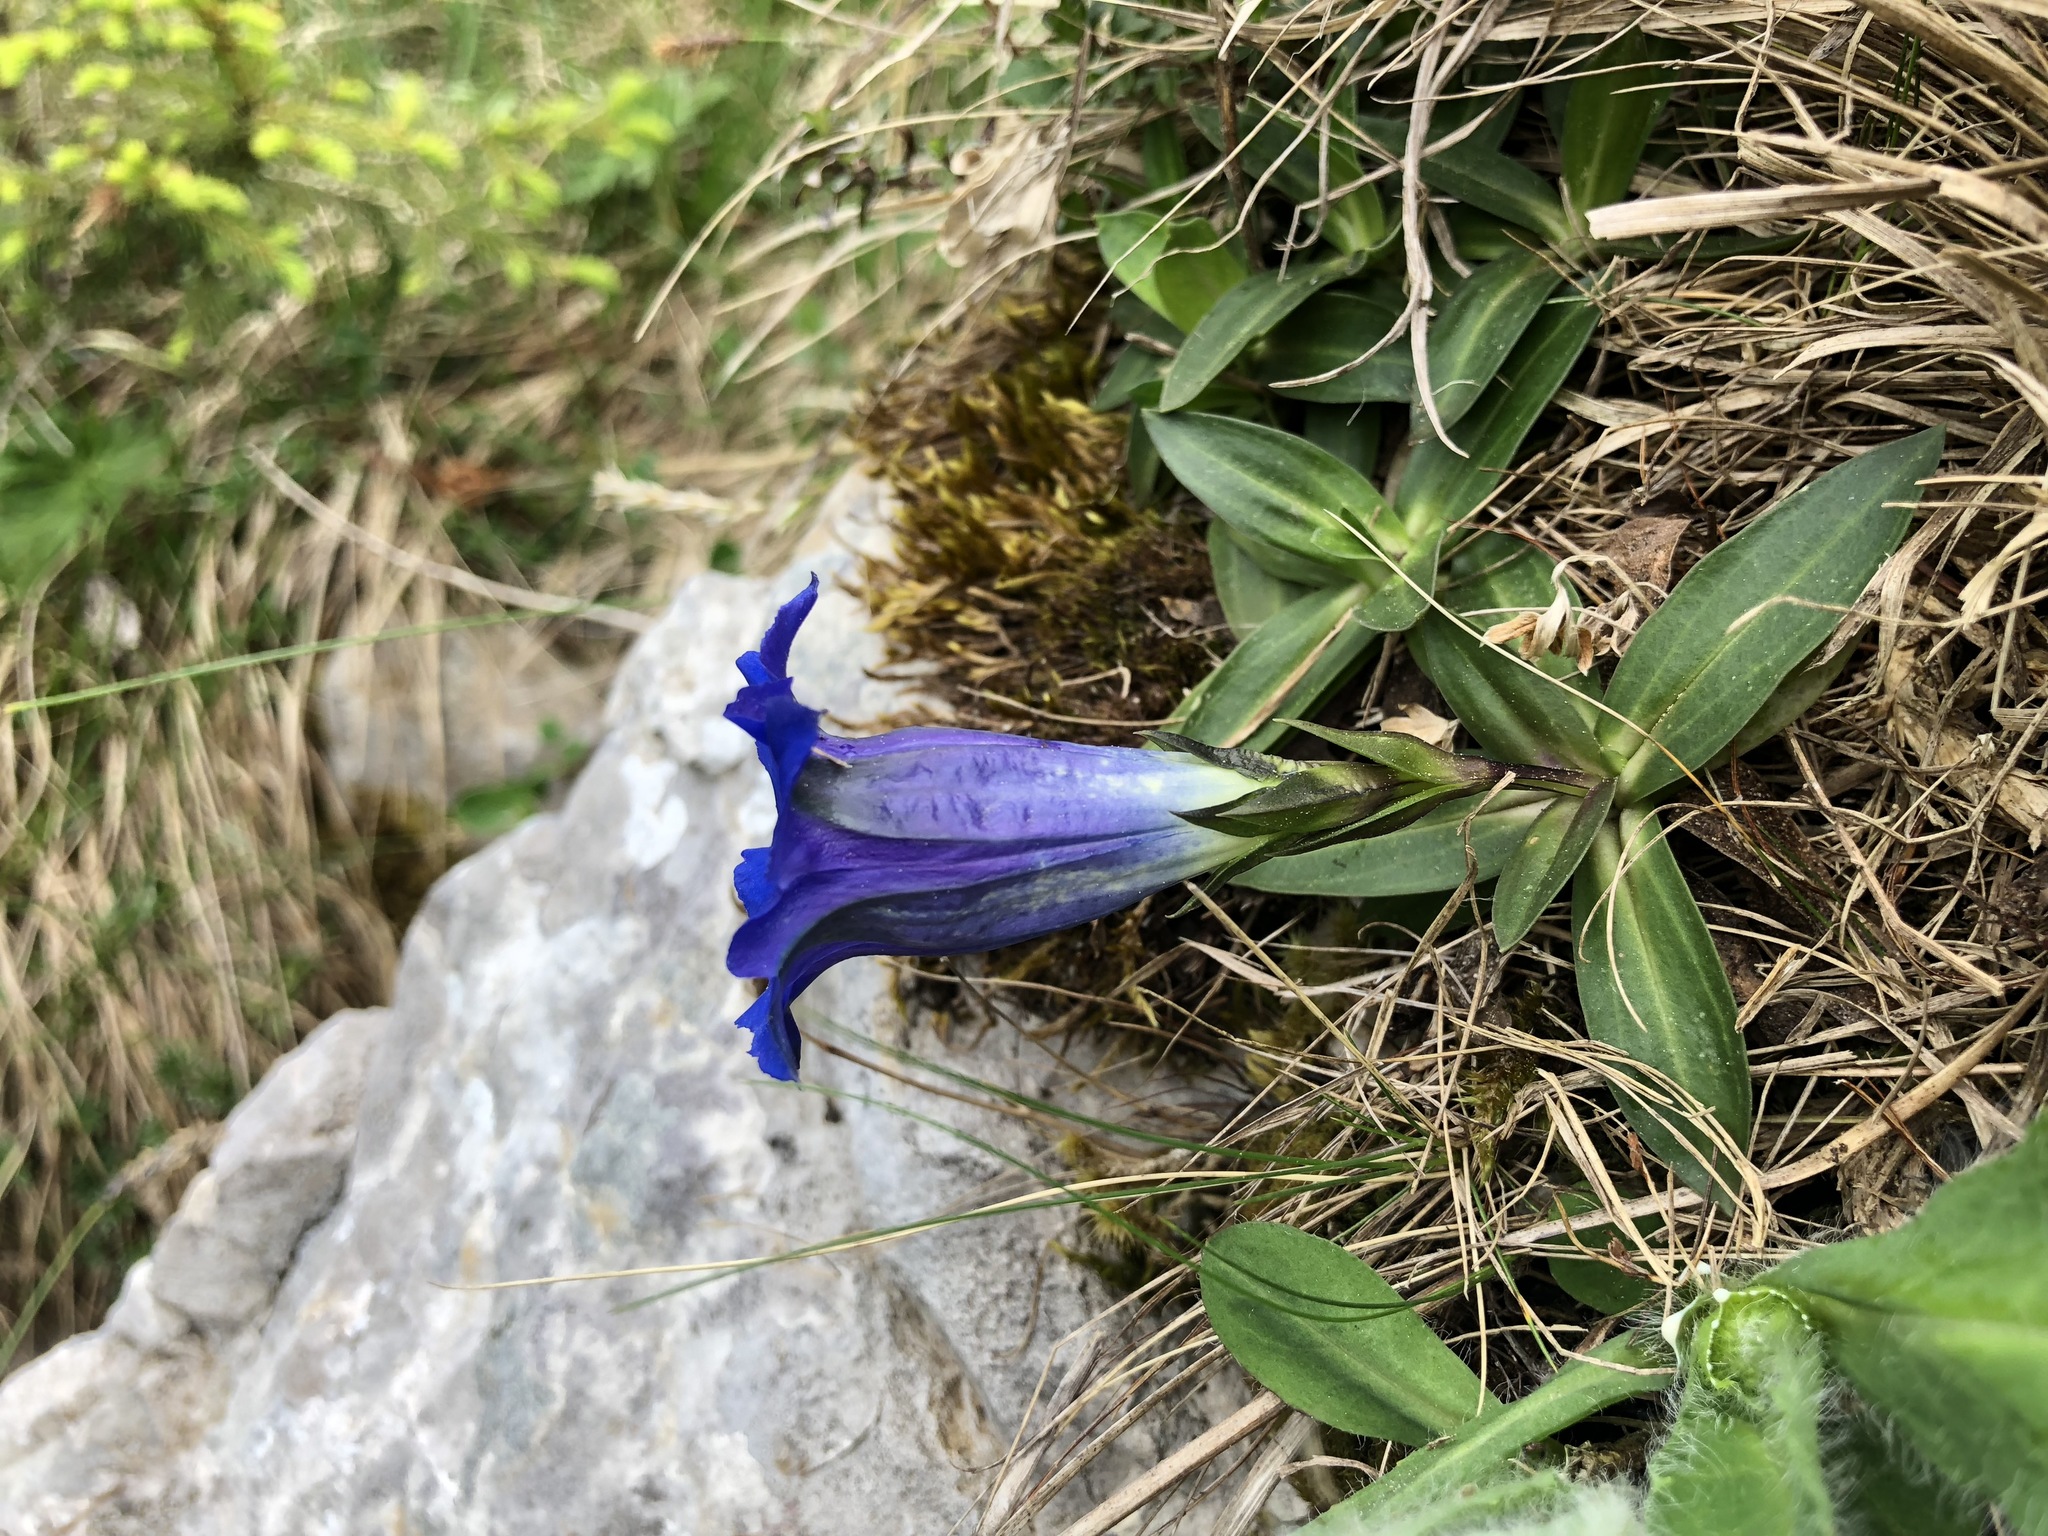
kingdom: Plantae
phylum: Tracheophyta
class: Magnoliopsida
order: Gentianales
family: Gentianaceae
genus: Gentiana
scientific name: Gentiana clusii
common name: Trumpet gentian
